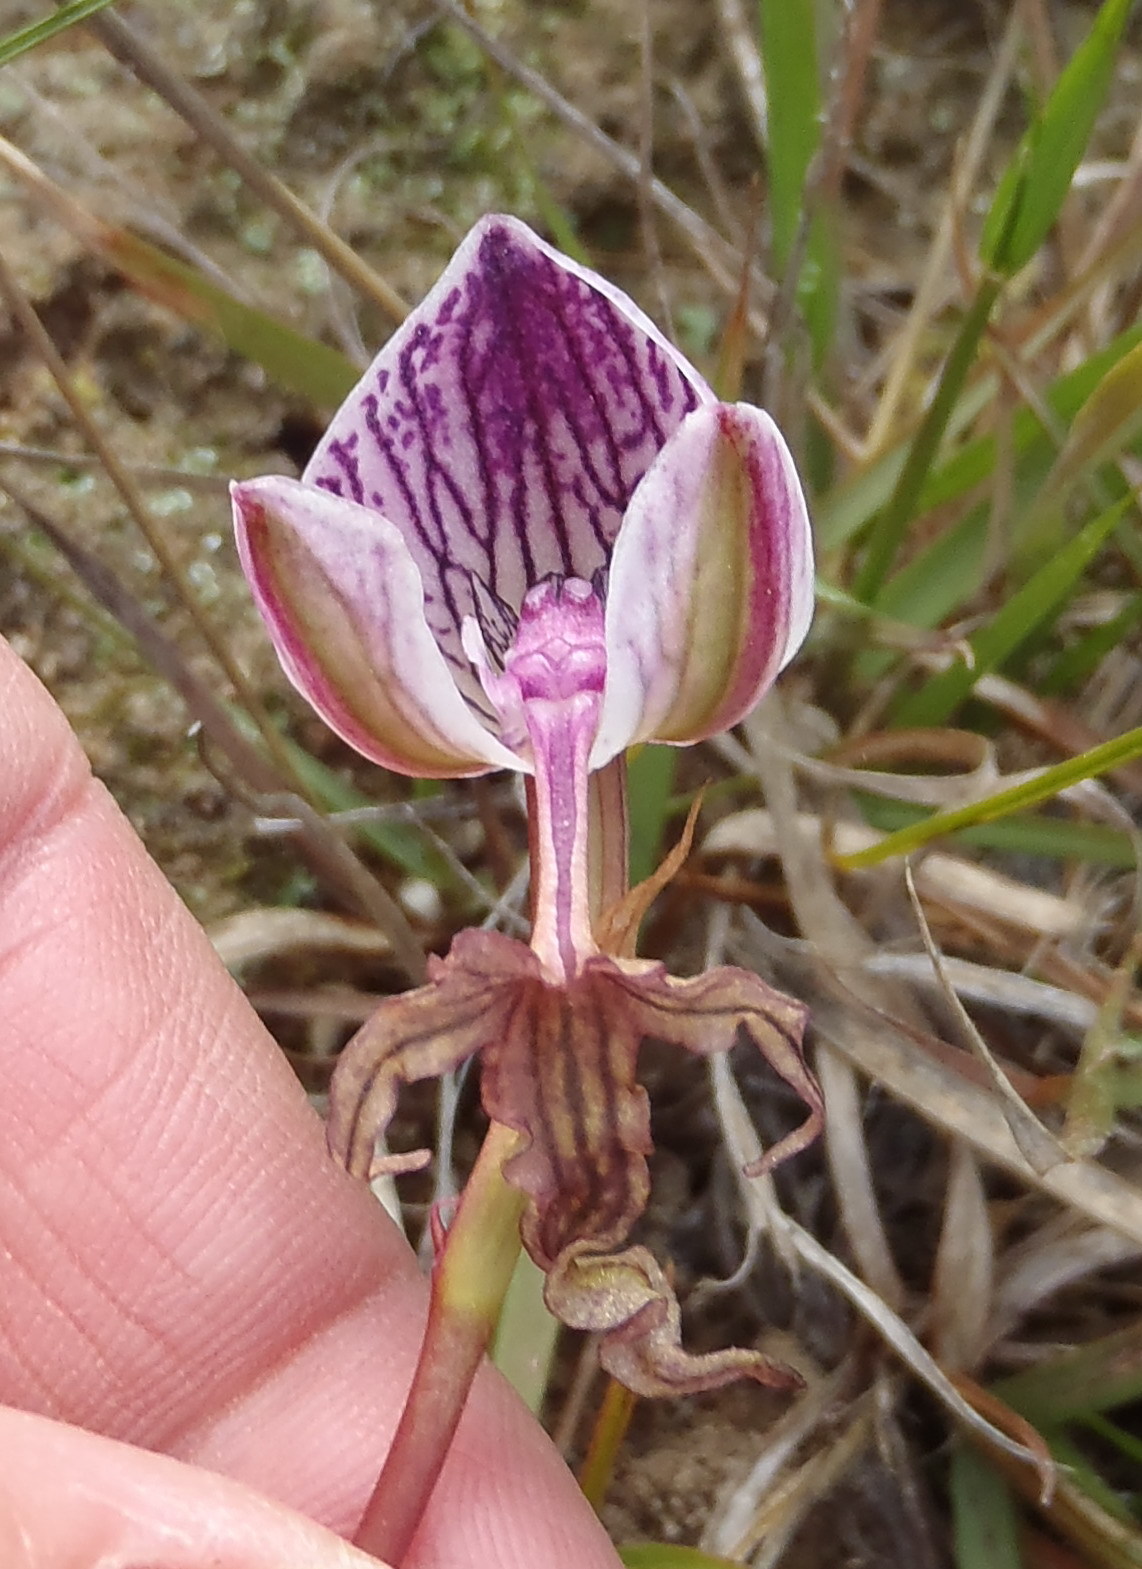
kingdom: Plantae
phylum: Tracheophyta
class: Liliopsida
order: Asparagales
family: Orchidaceae
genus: Disa
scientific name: Disa spathulata
